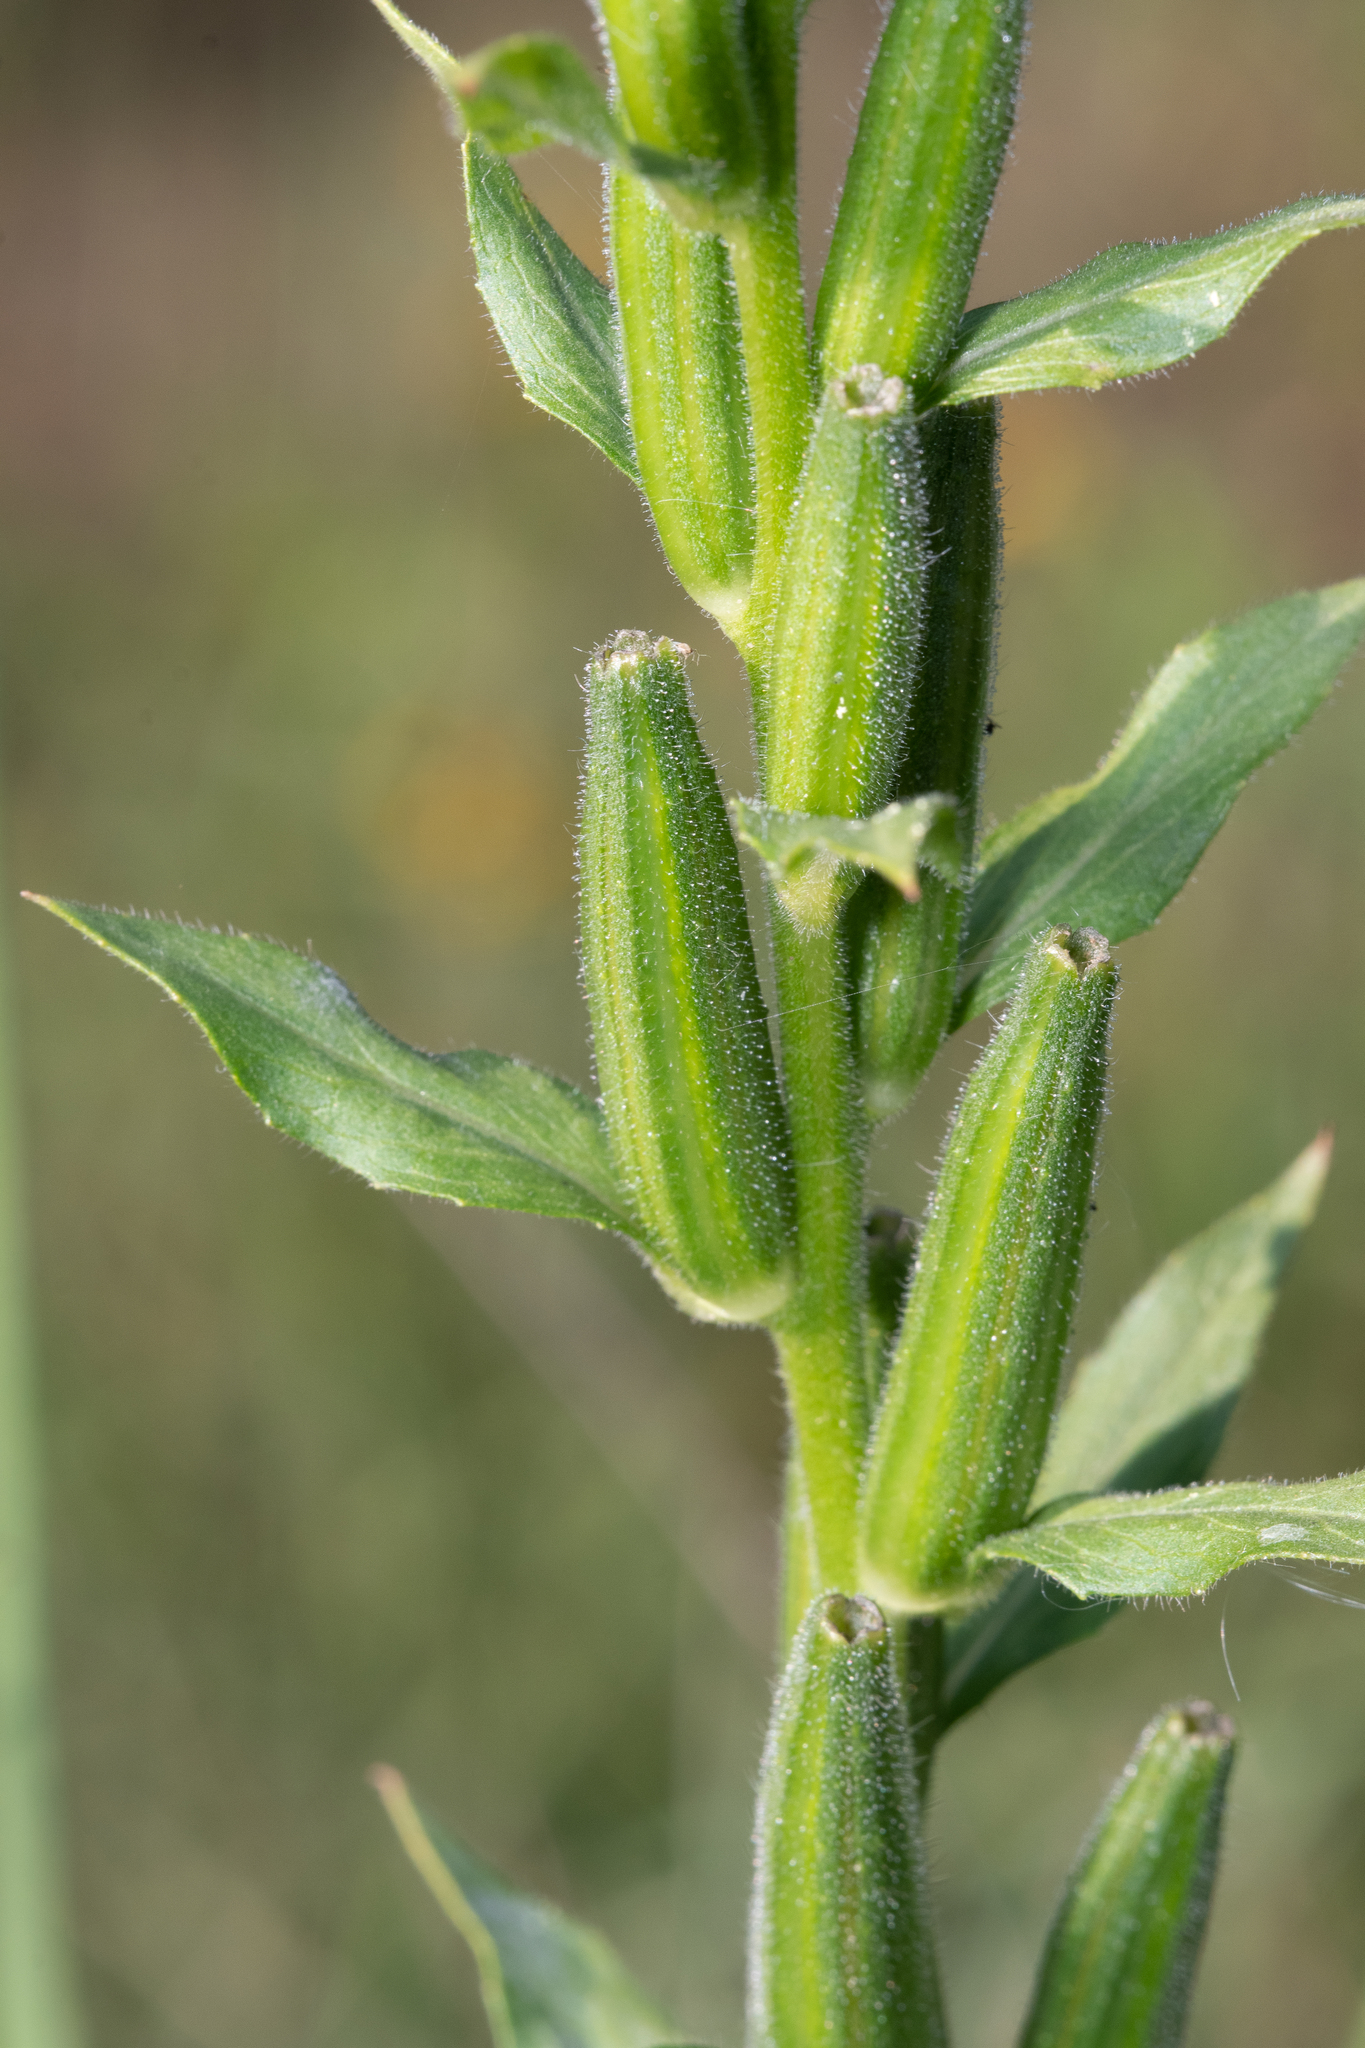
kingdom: Plantae
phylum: Tracheophyta
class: Magnoliopsida
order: Myrtales
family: Onagraceae
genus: Oenothera
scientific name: Oenothera biennis
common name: Common evening-primrose
